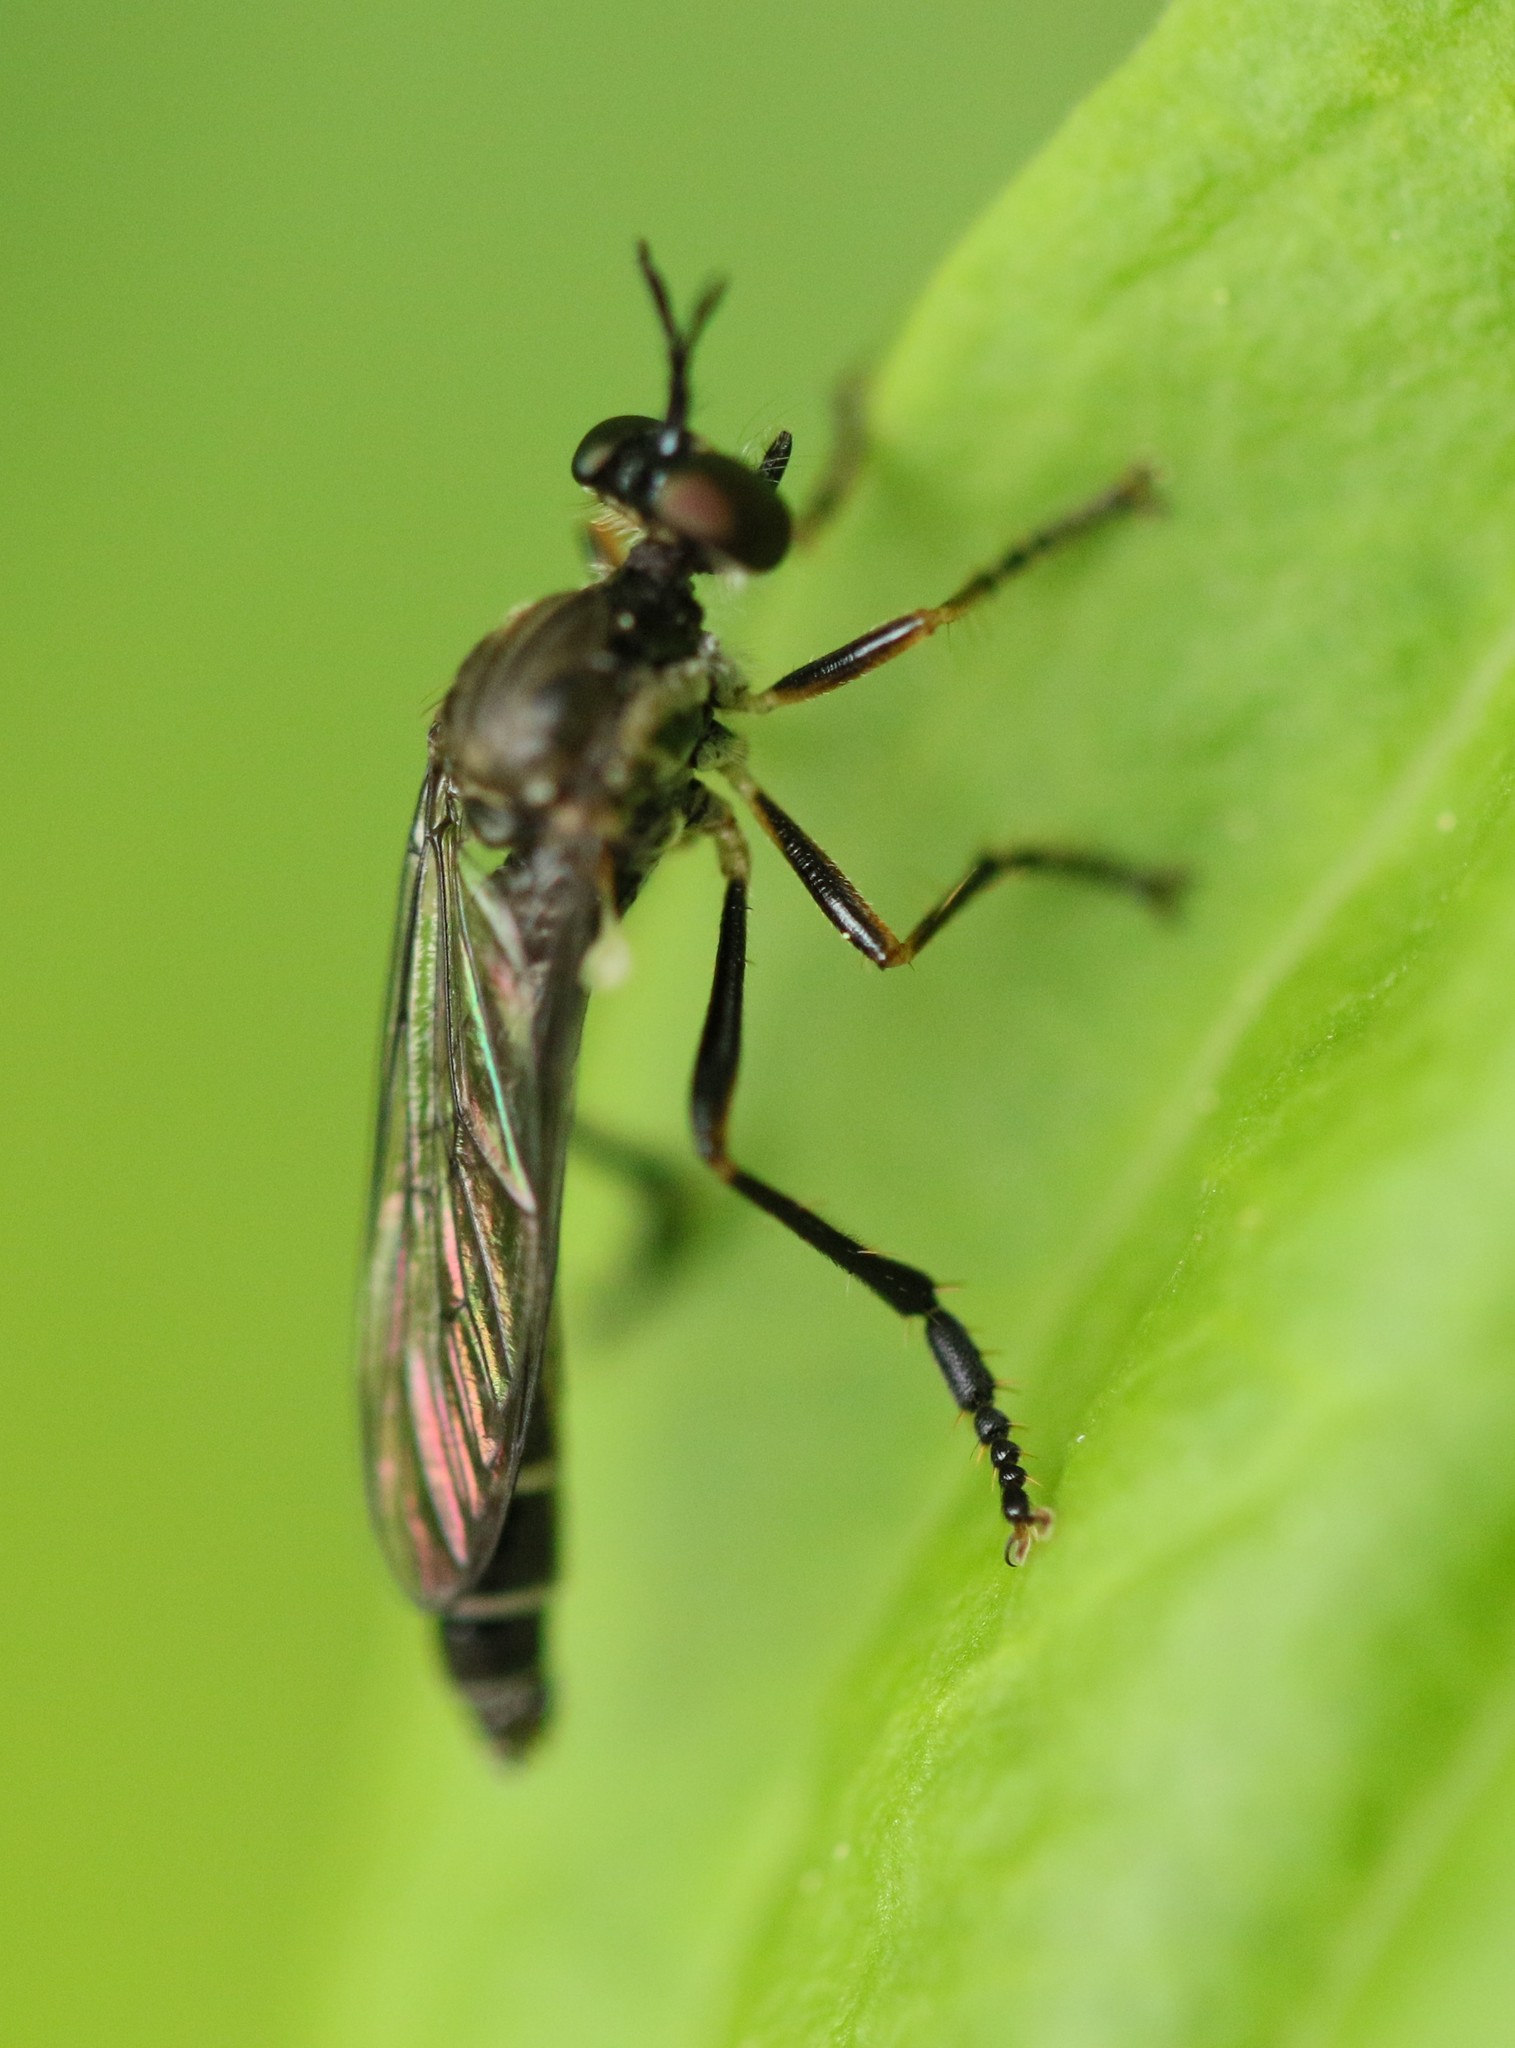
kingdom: Animalia
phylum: Arthropoda
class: Insecta
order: Diptera
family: Asilidae
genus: Dioctria
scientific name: Dioctria hyalipennis
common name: Stripe-legged robberfly
